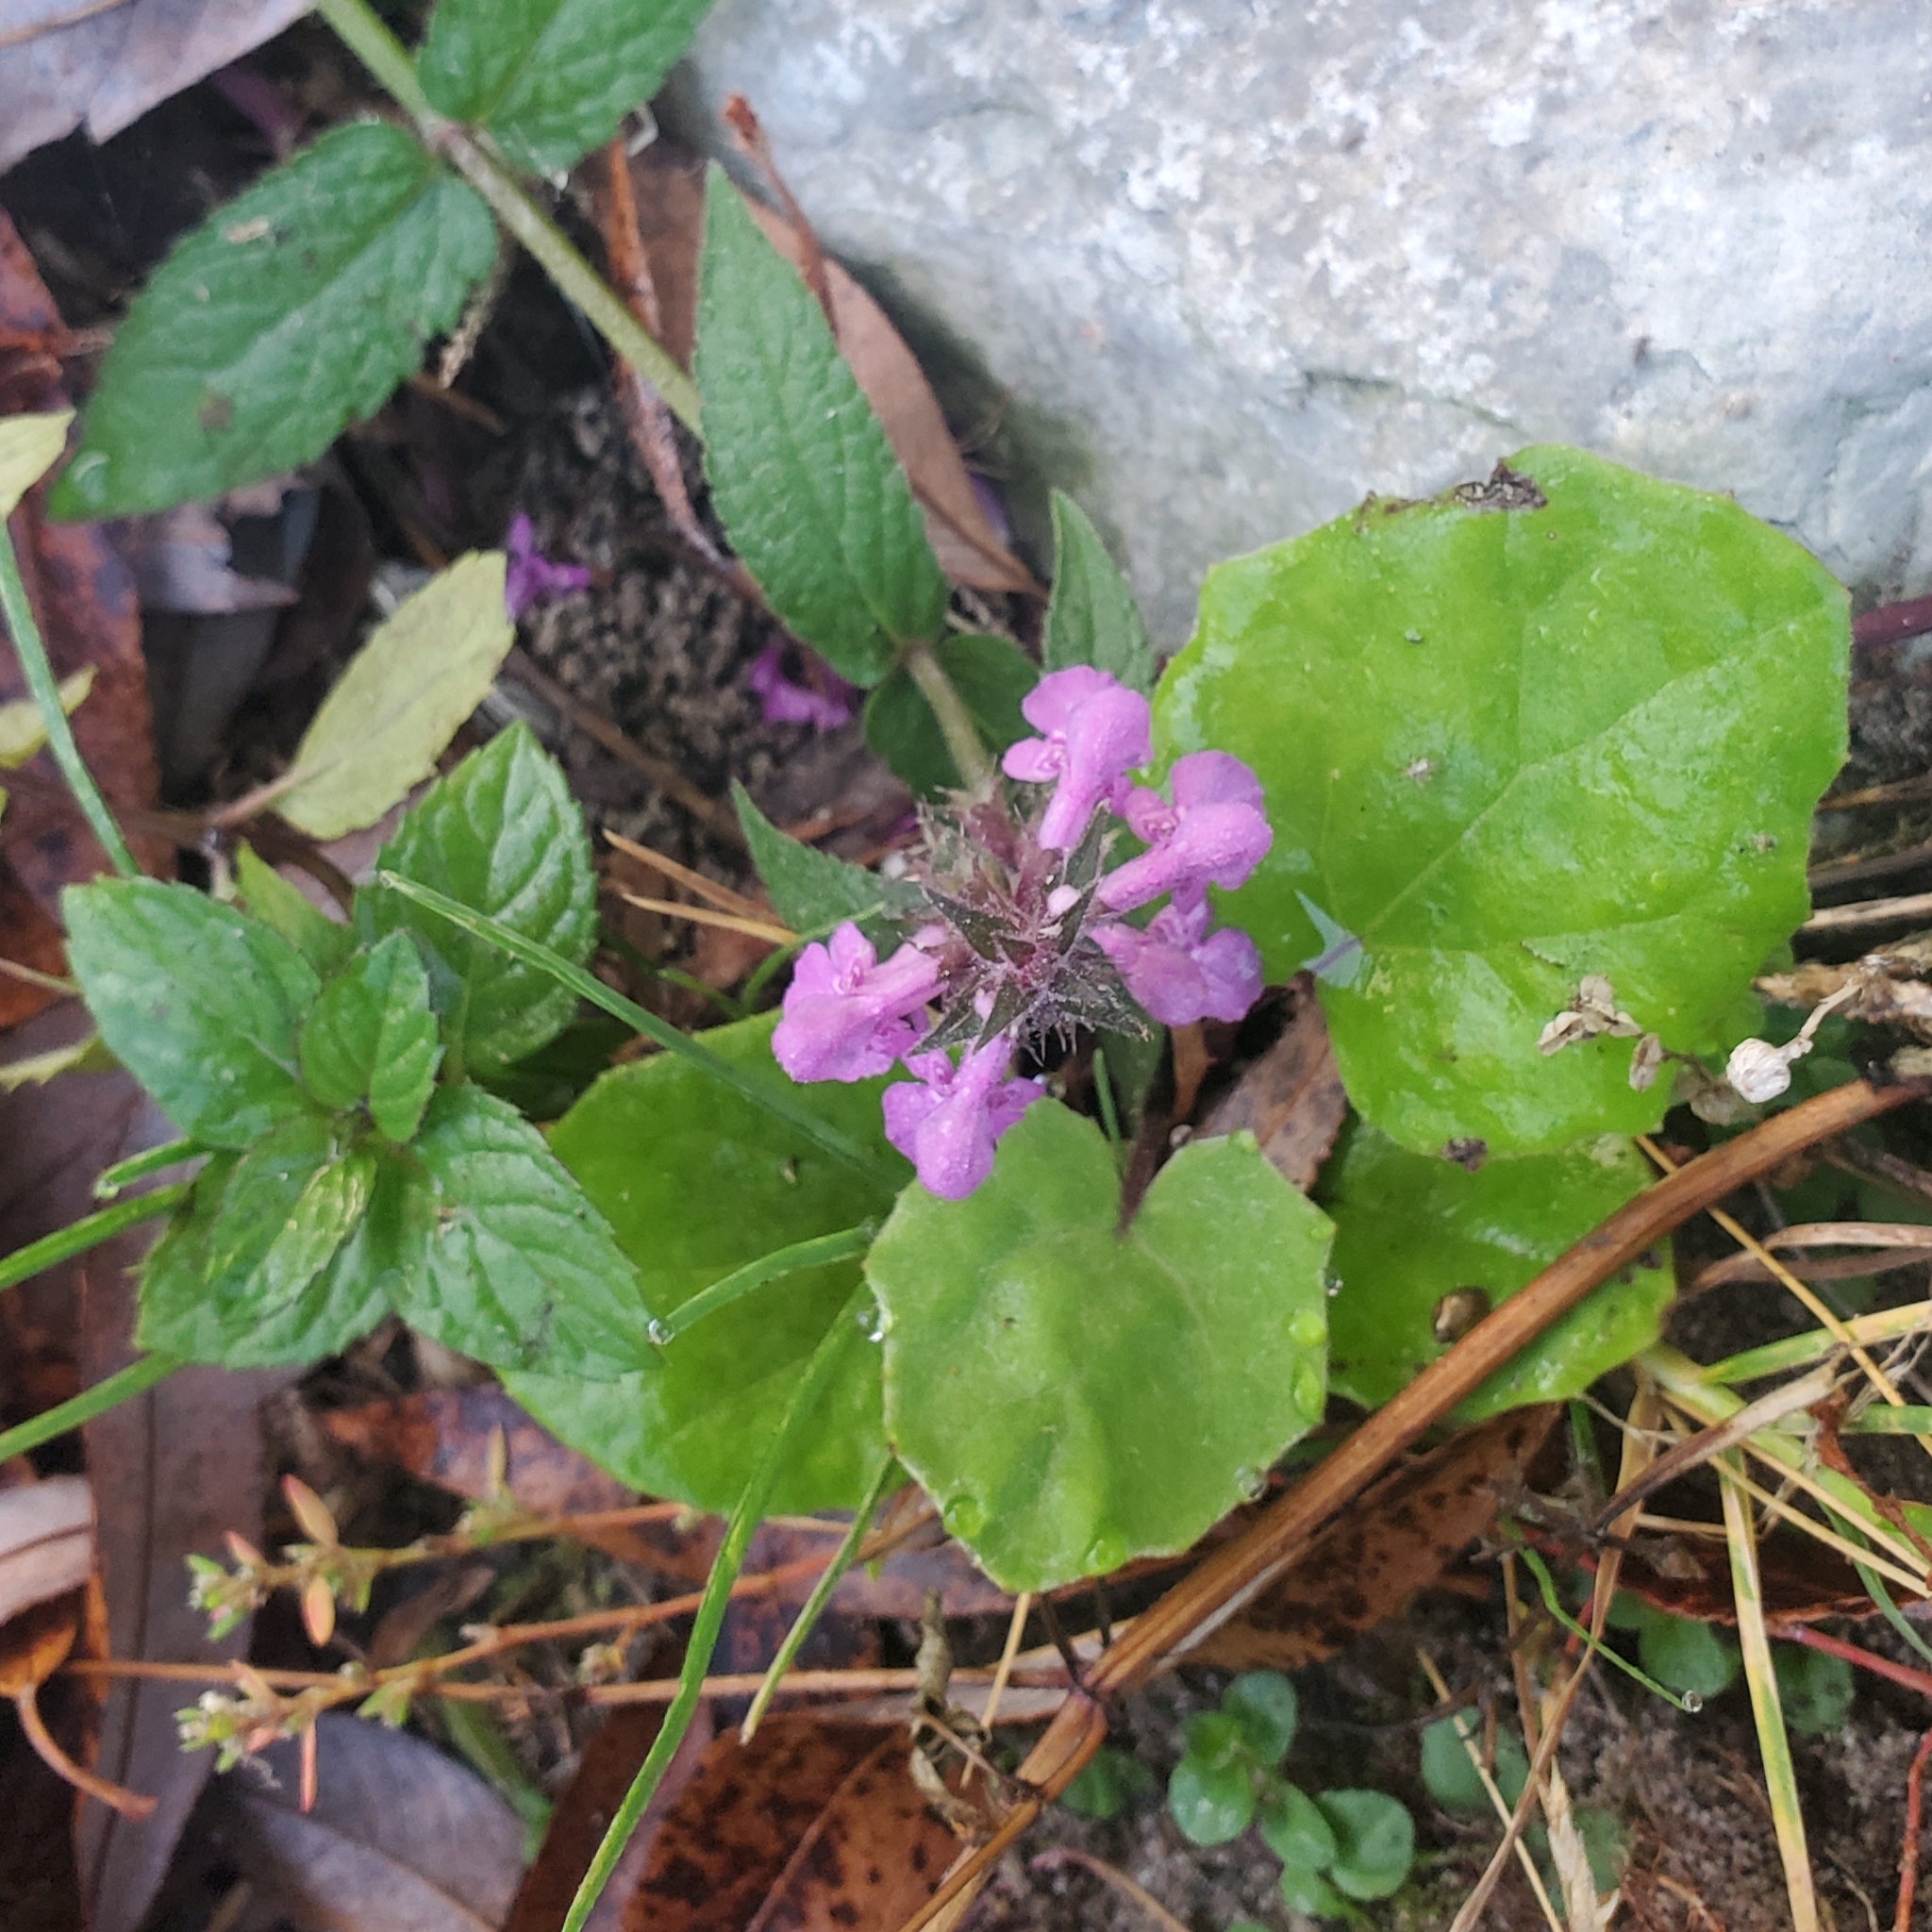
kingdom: Plantae
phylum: Tracheophyta
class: Magnoliopsida
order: Lamiales
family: Lamiaceae
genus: Clinopodium
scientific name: Clinopodium vulgare
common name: Wild basil
